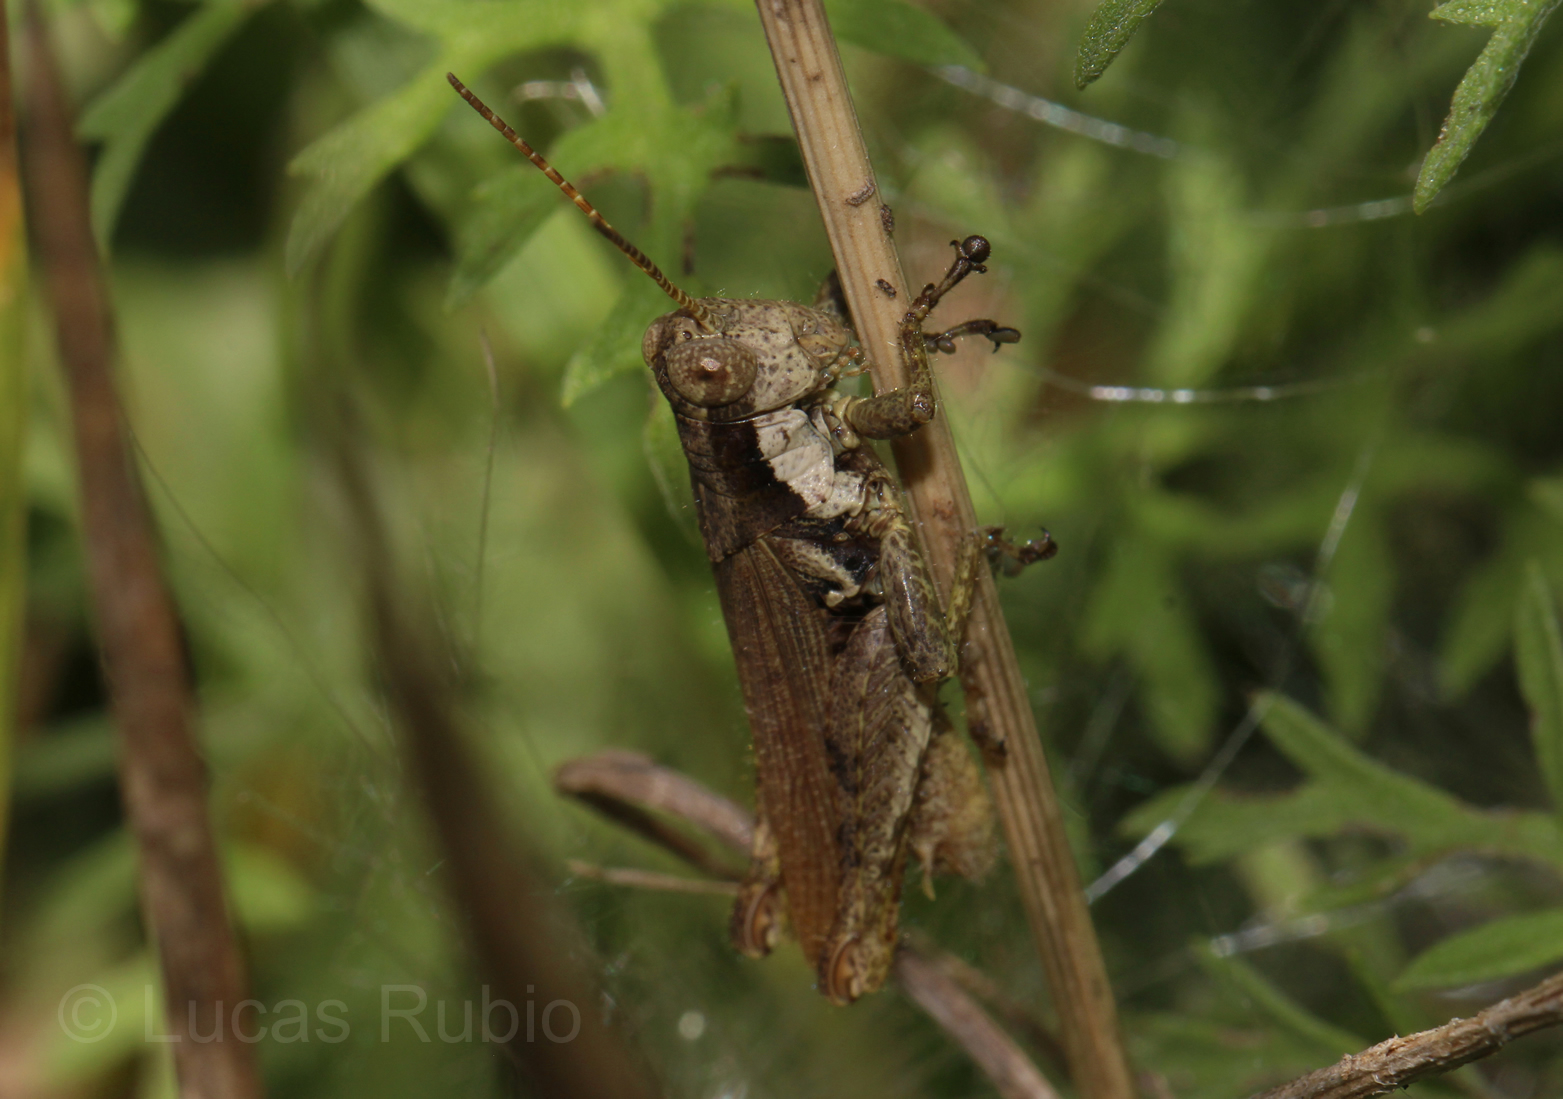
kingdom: Animalia
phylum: Arthropoda
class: Insecta
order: Orthoptera
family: Acrididae
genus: Ronderosia
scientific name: Ronderosia bergii
